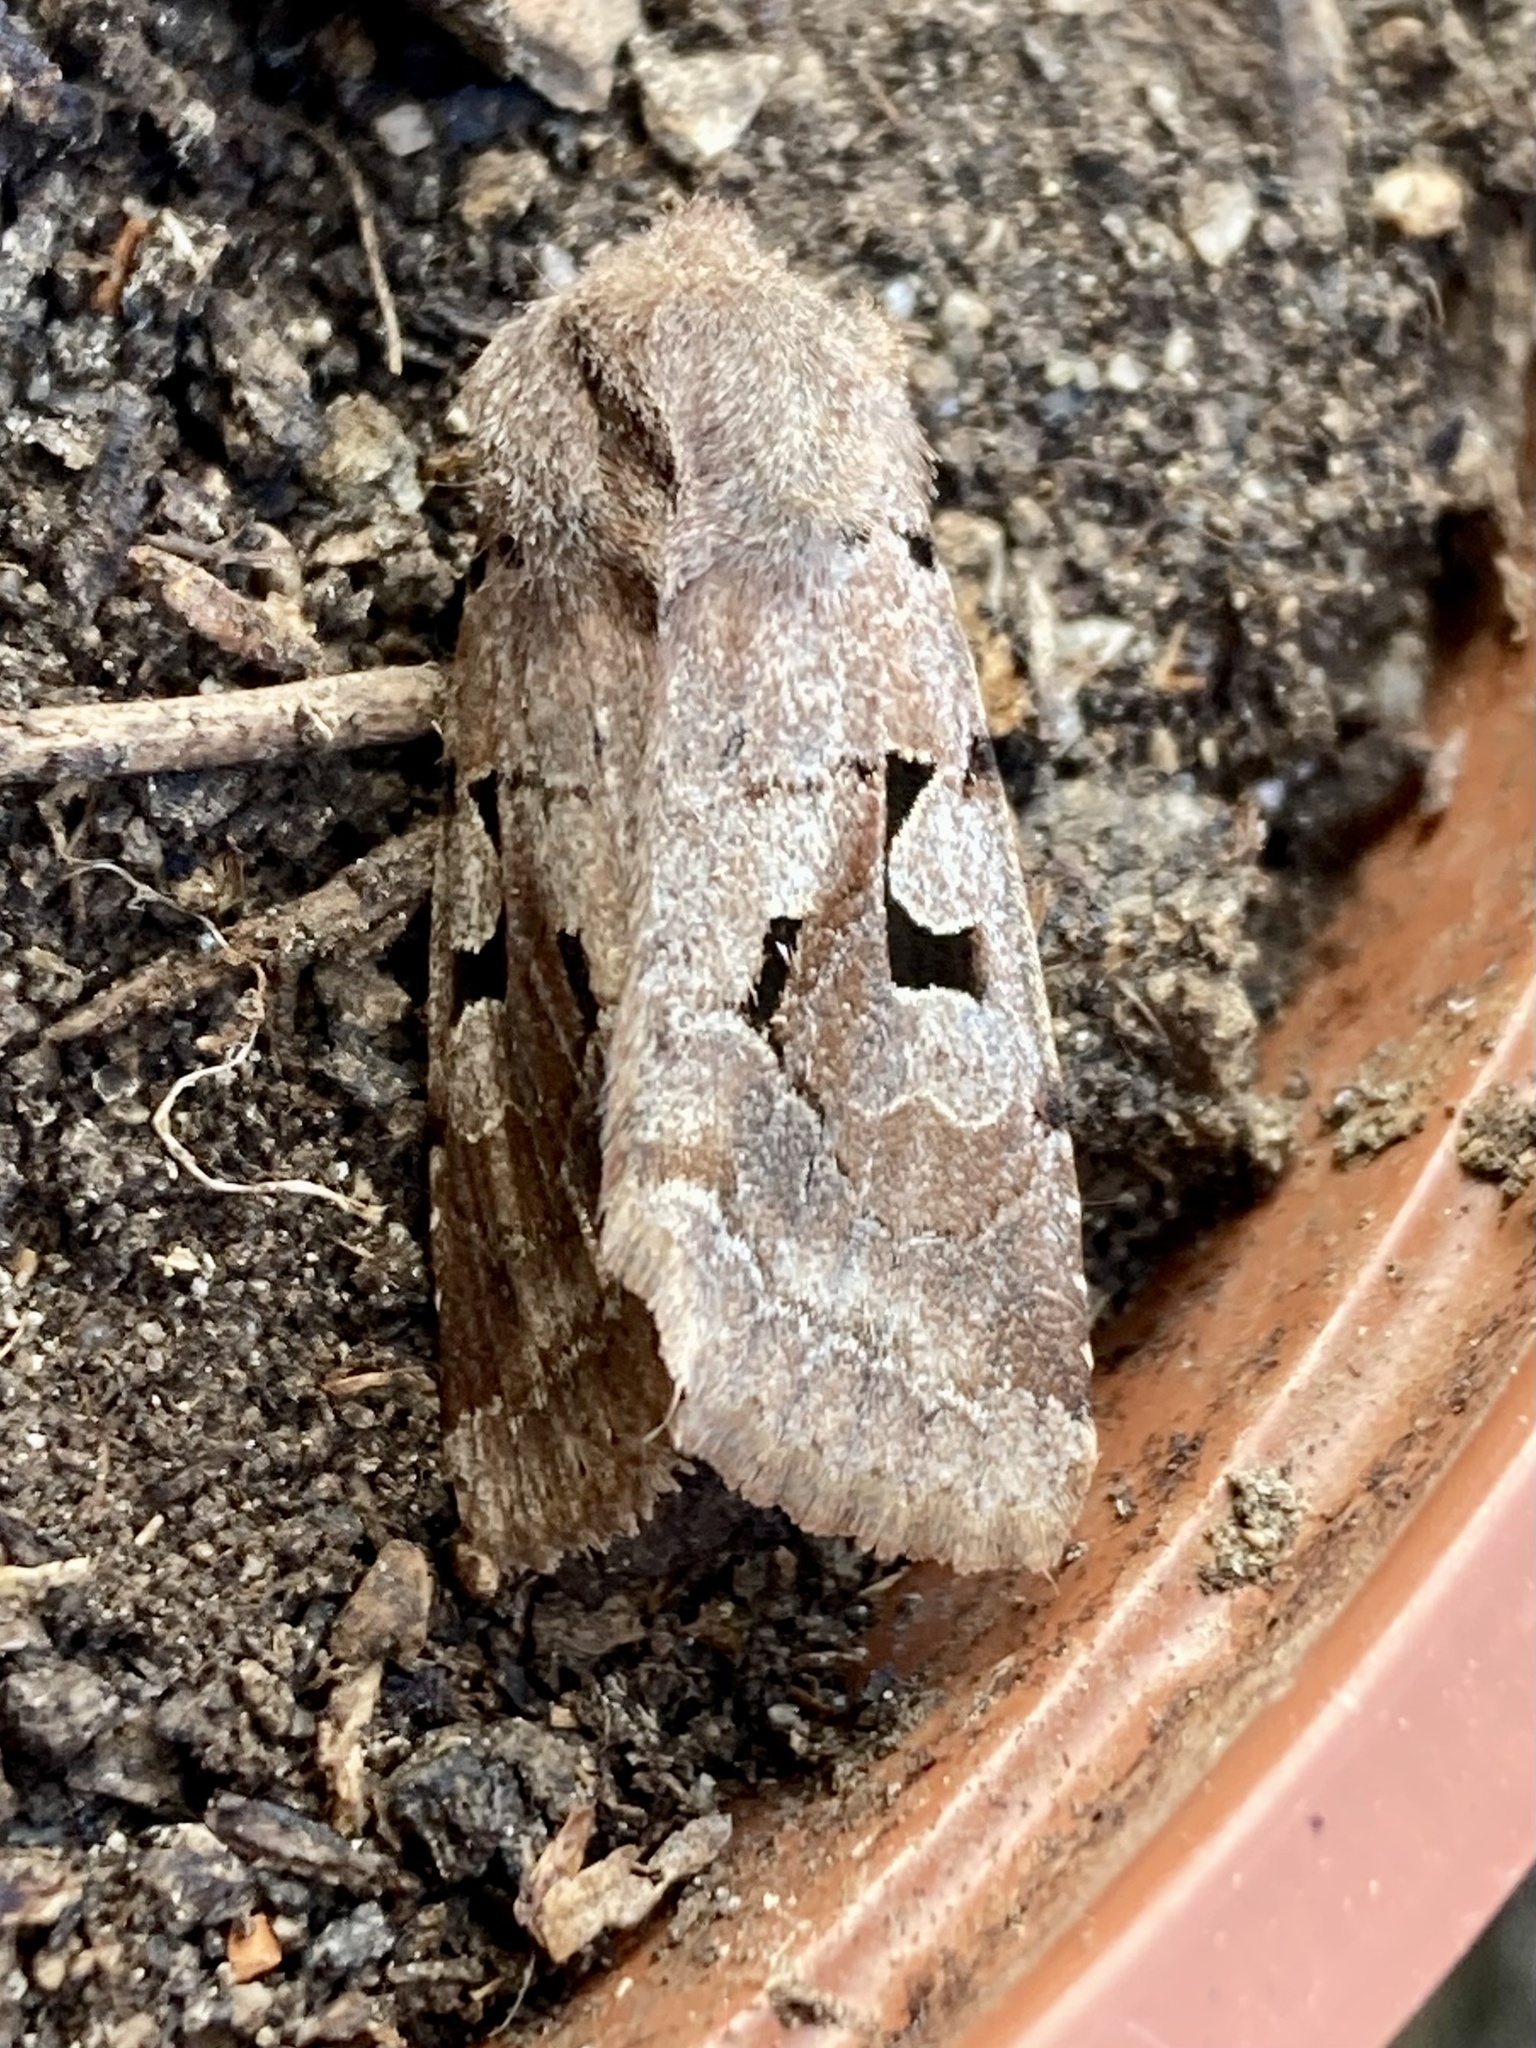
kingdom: Animalia
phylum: Arthropoda
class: Insecta
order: Lepidoptera
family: Noctuidae
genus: Orthosia
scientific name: Orthosia gothica
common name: Hebrew character
